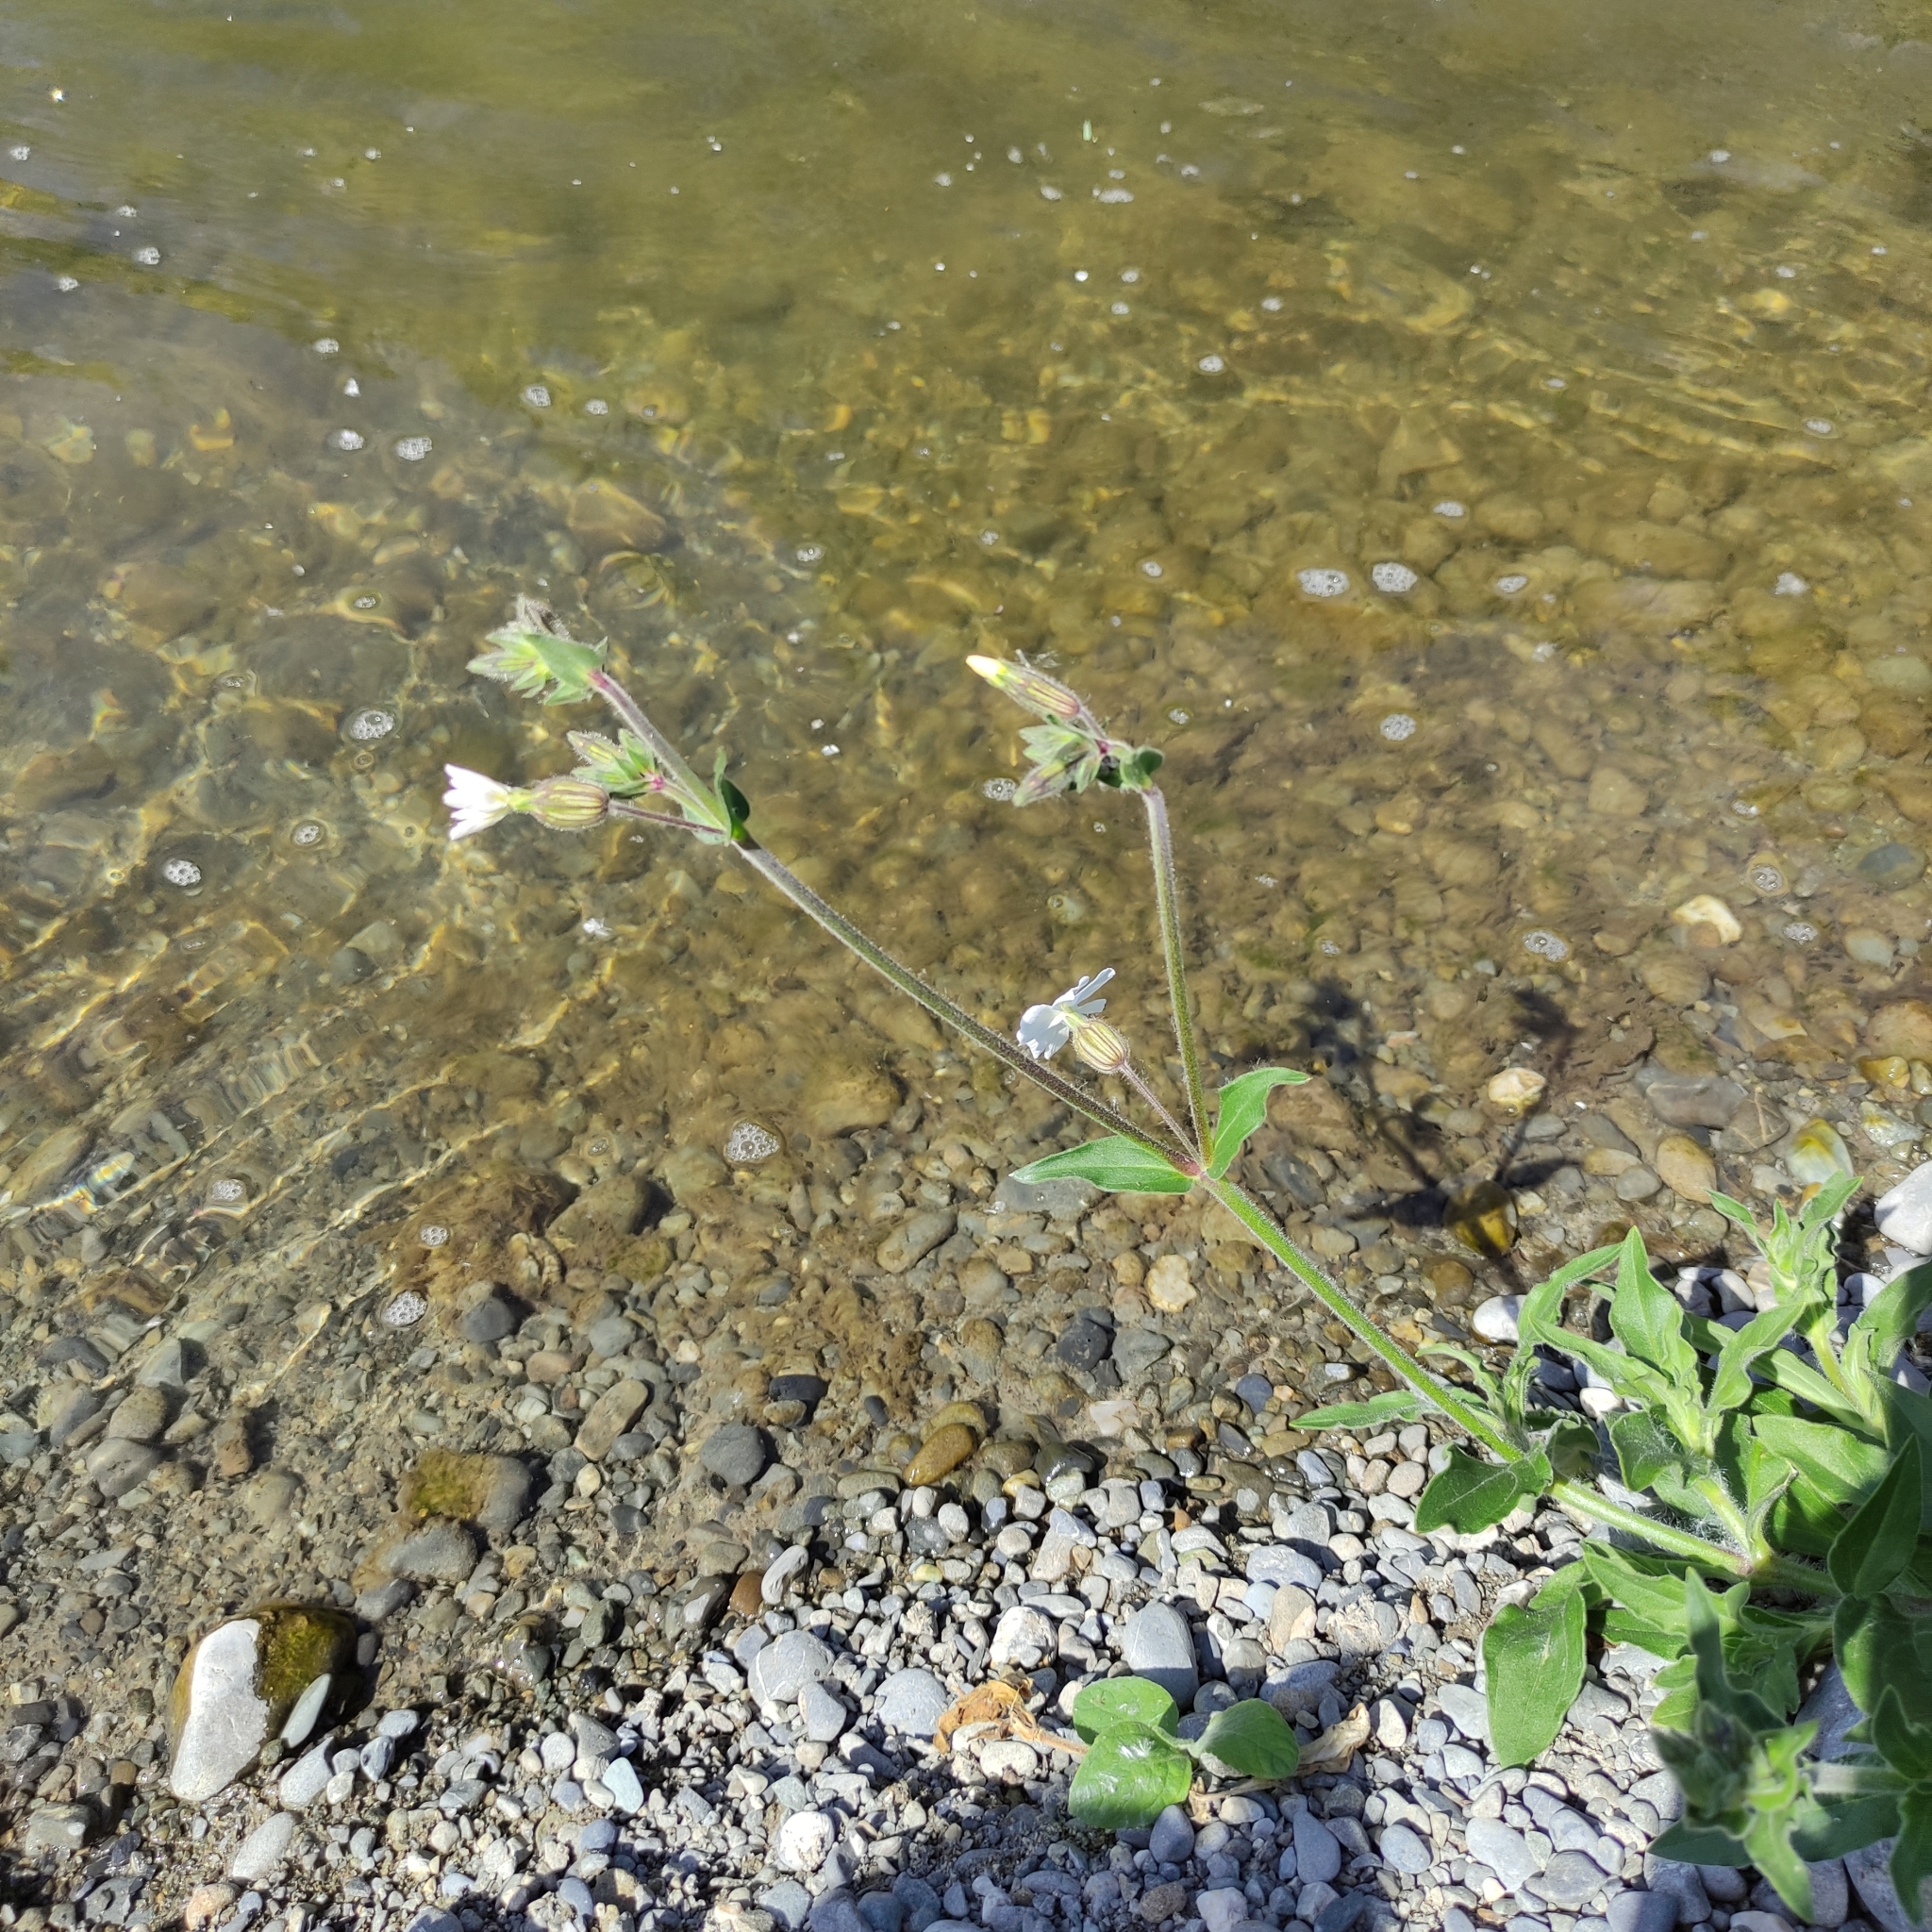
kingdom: Plantae
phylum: Tracheophyta
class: Magnoliopsida
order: Caryophyllales
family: Caryophyllaceae
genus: Silene
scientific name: Silene latifolia
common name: White campion
